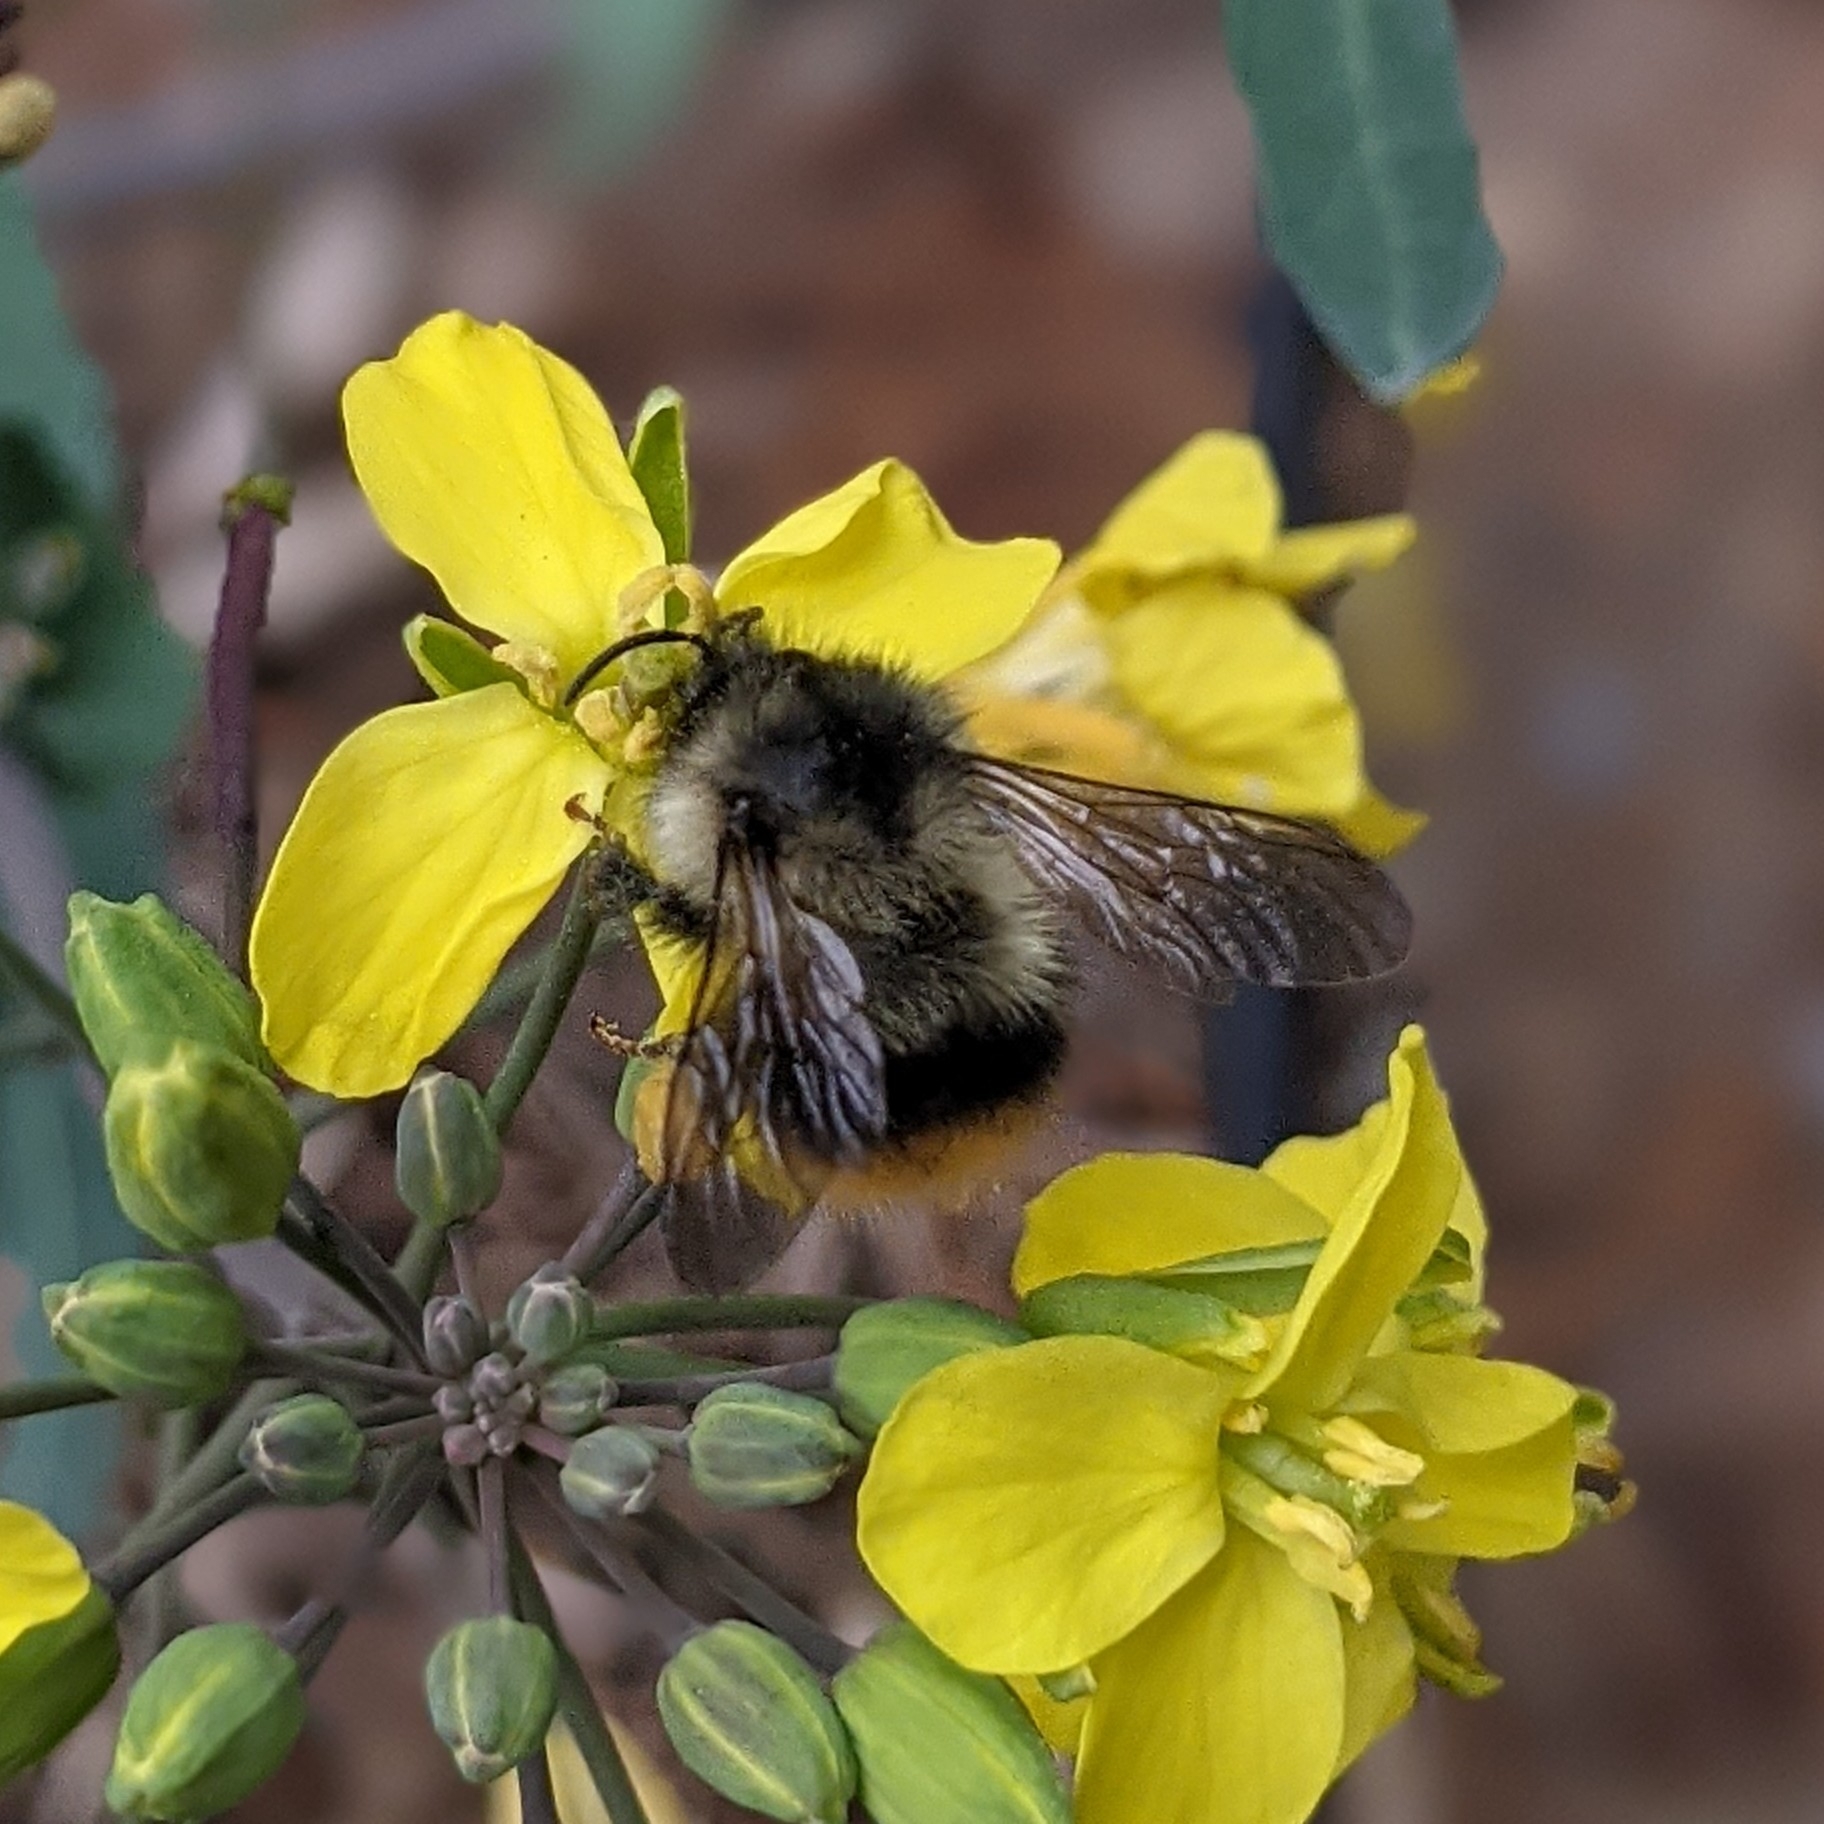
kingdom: Animalia
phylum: Arthropoda
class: Insecta
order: Hymenoptera
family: Apidae
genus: Bombus
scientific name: Bombus mixtus
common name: Fuzzy-horned bumble bee
